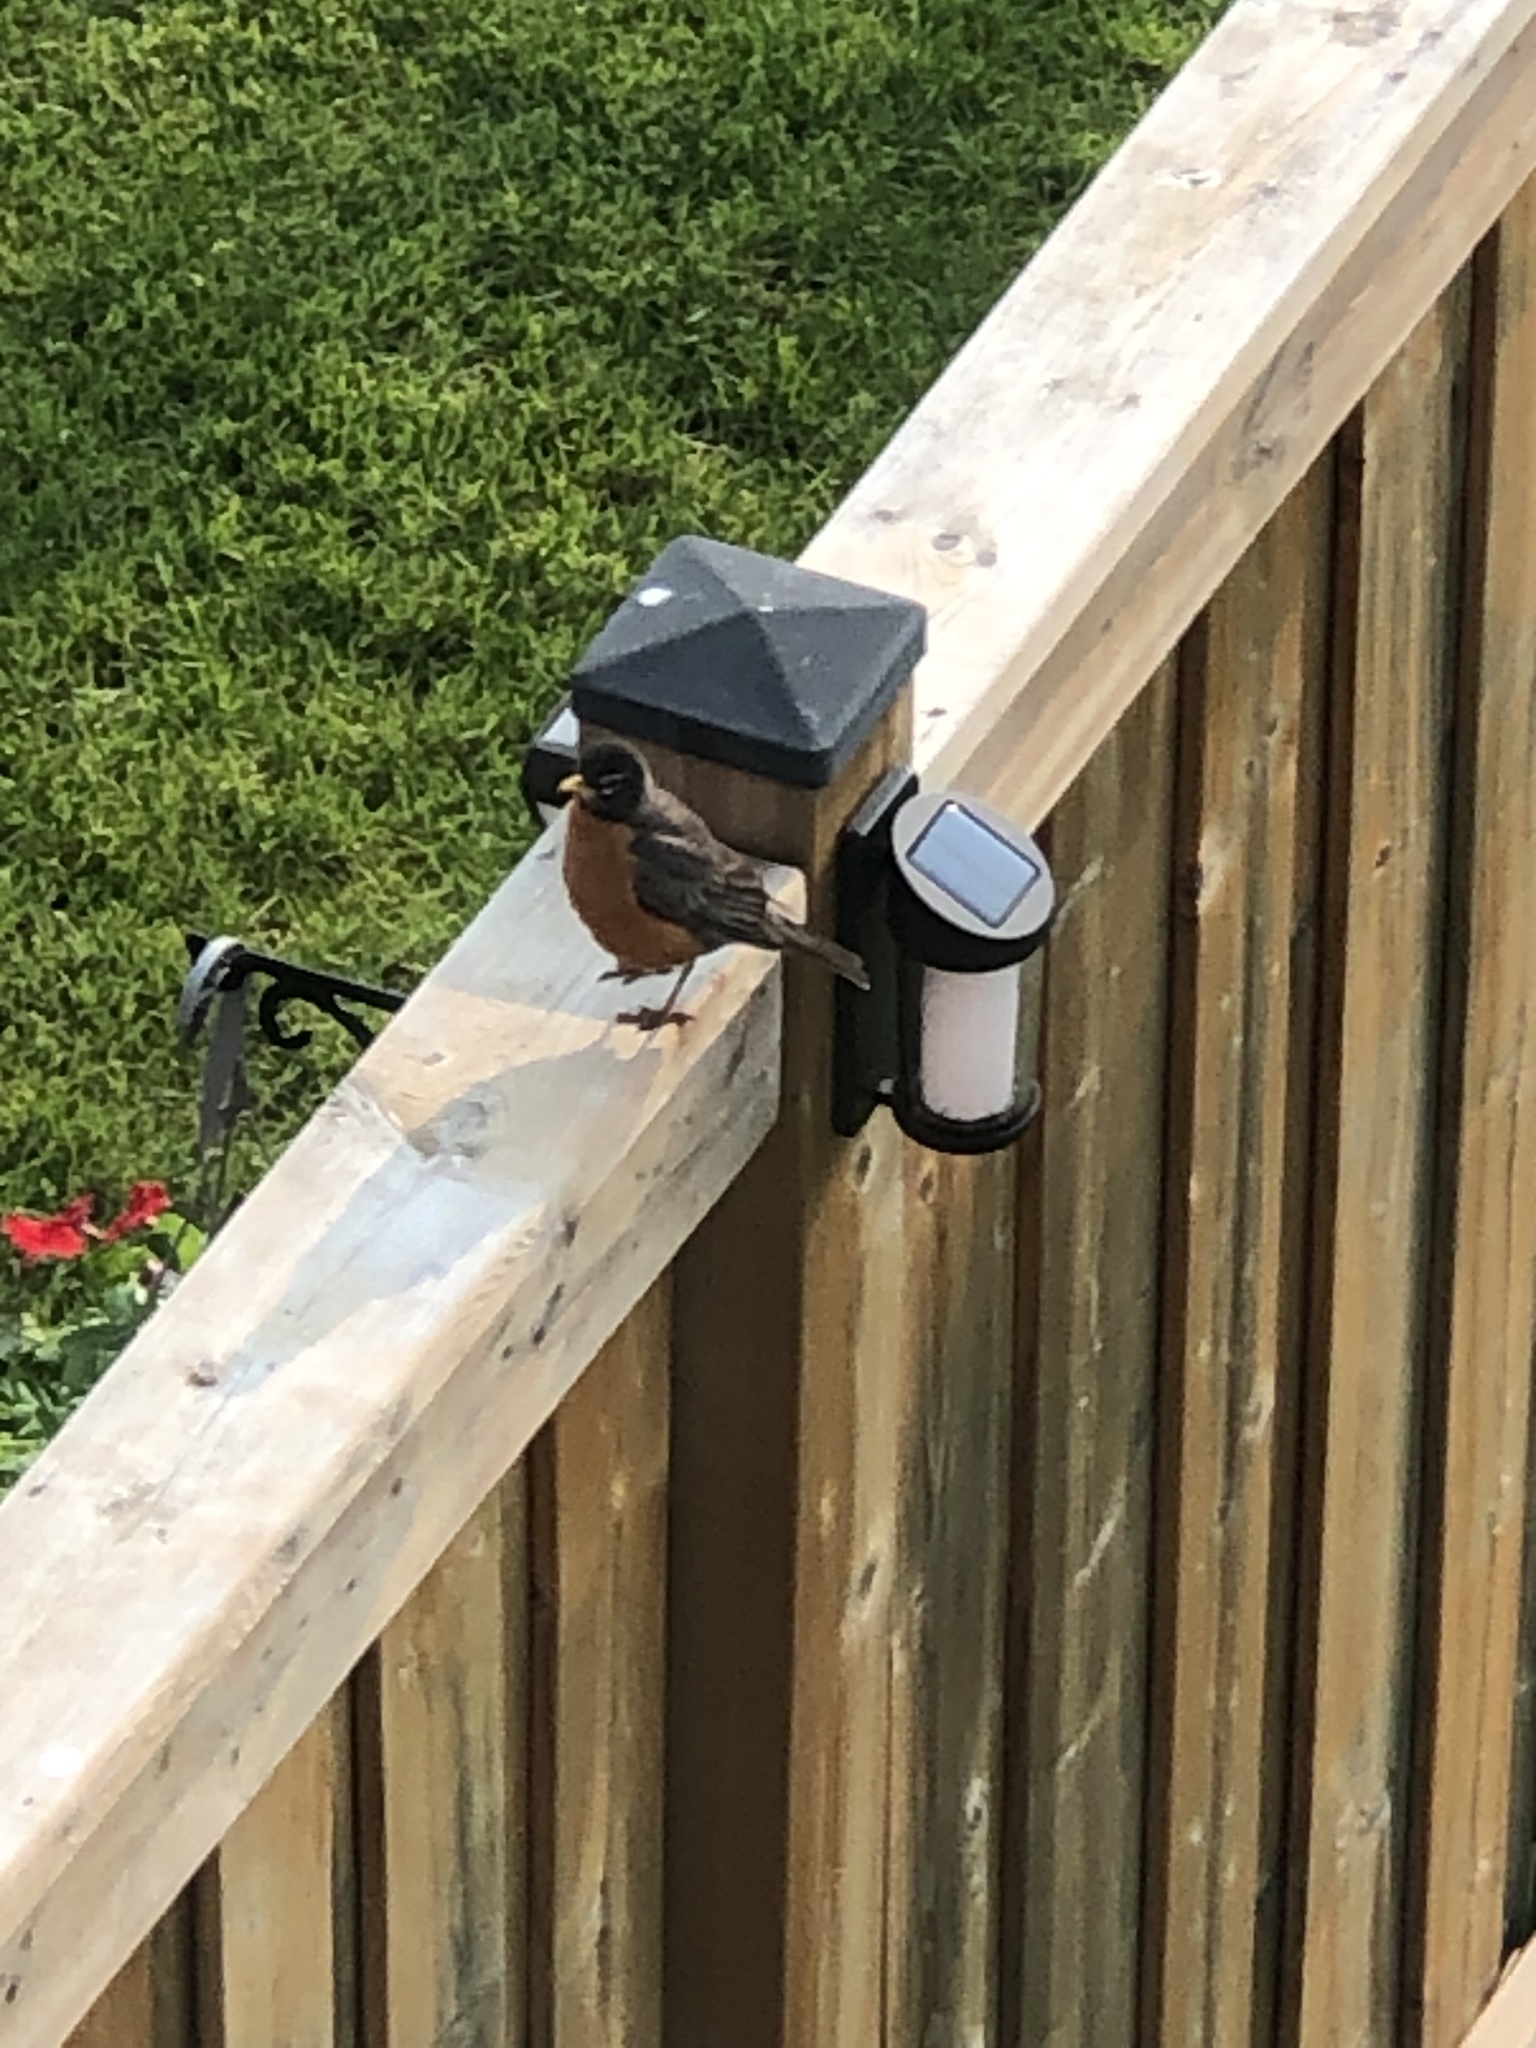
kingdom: Animalia
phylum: Chordata
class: Aves
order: Passeriformes
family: Turdidae
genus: Turdus
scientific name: Turdus migratorius
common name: American robin
